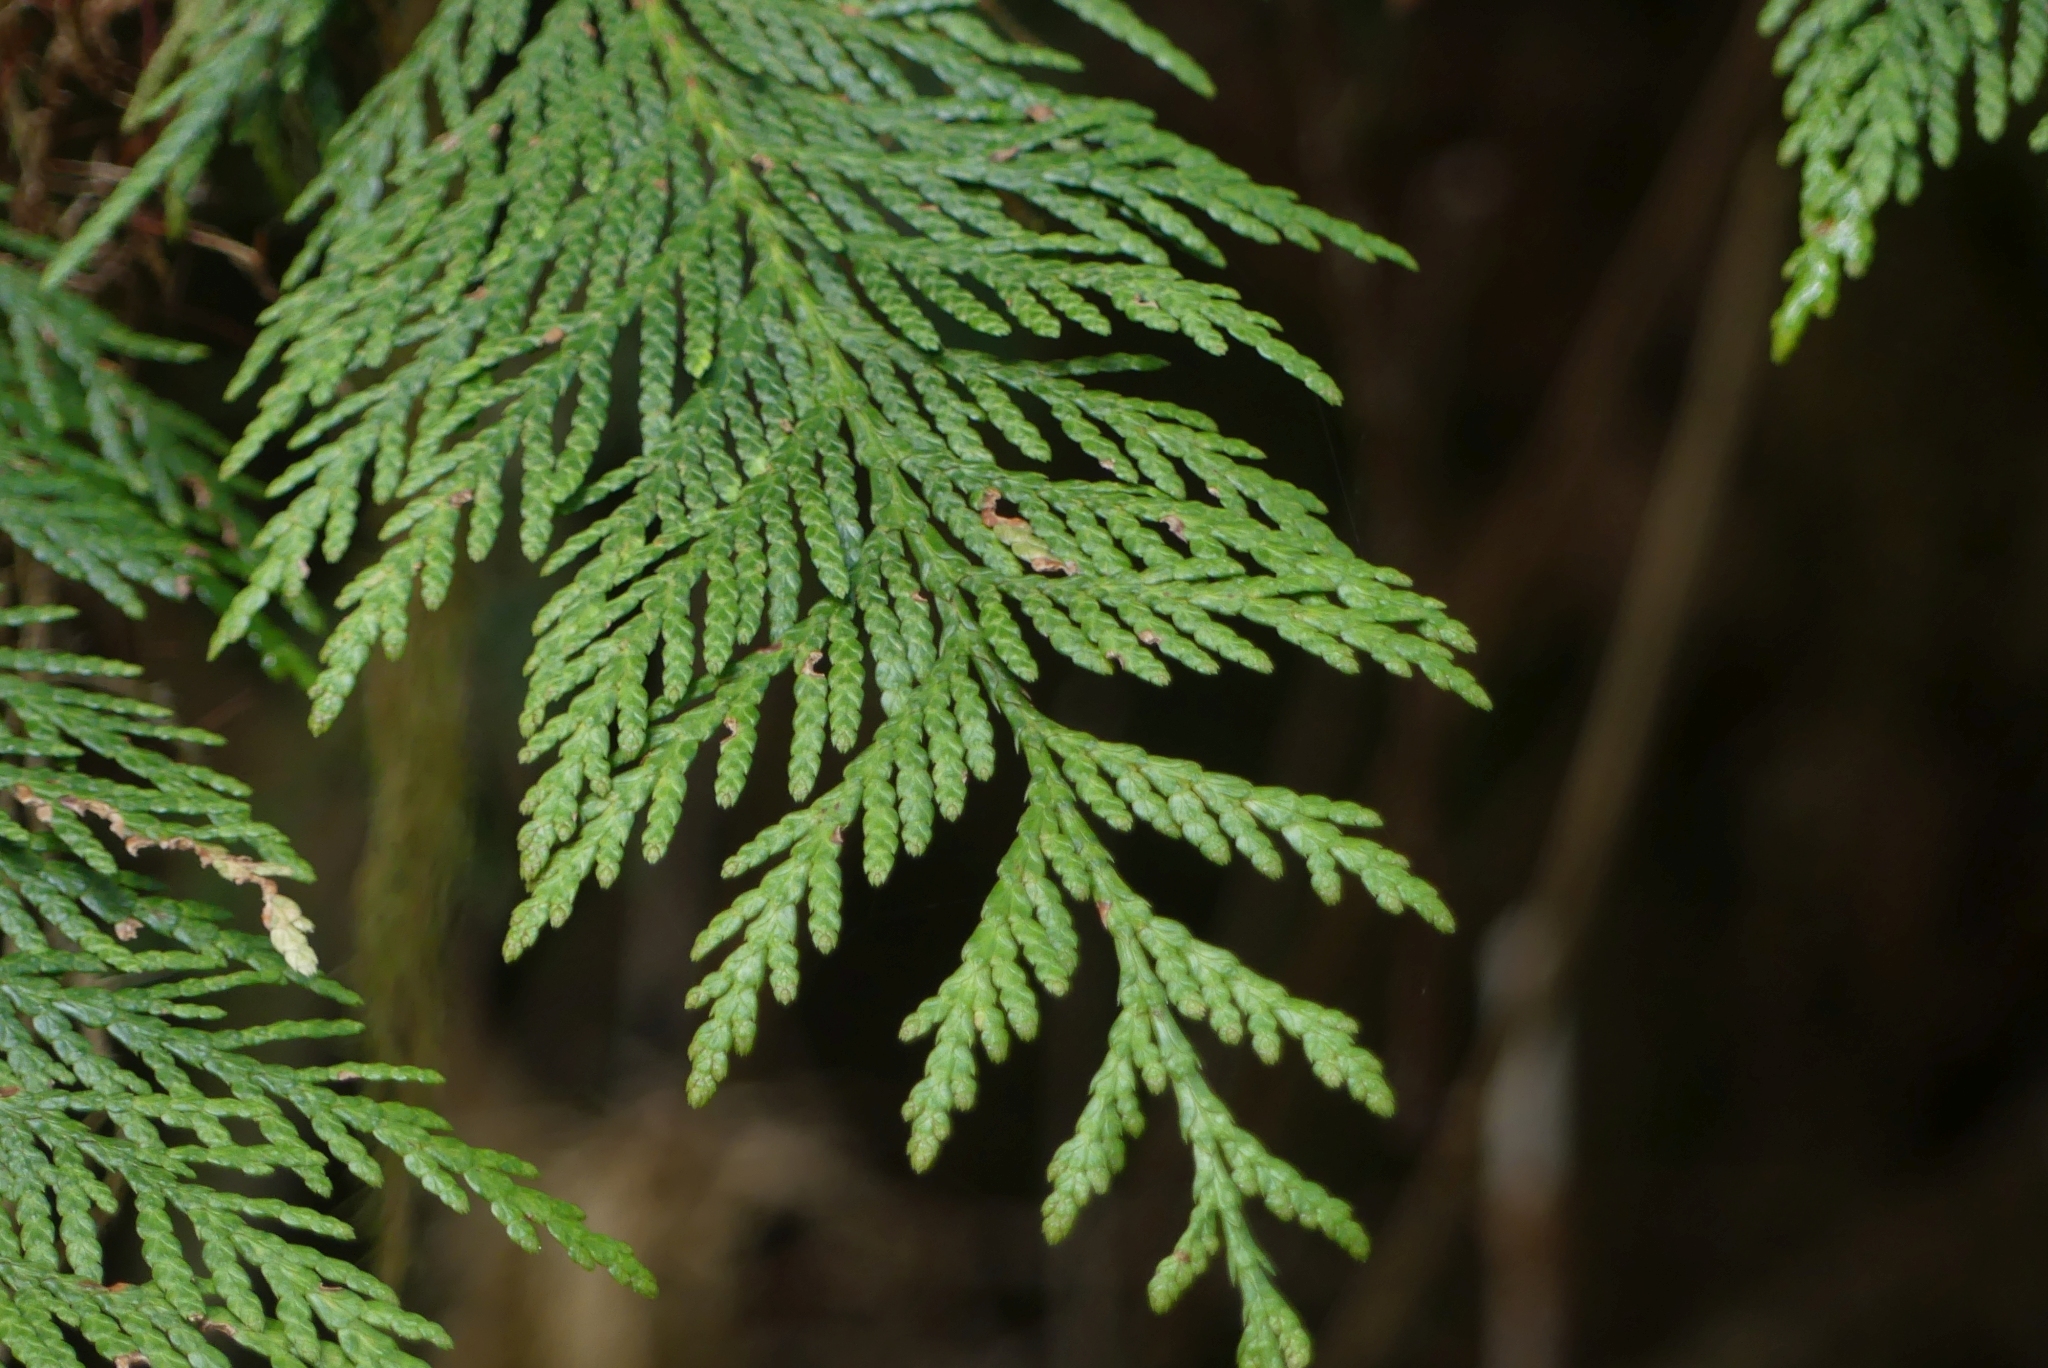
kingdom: Plantae
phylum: Tracheophyta
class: Pinopsida
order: Pinales
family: Cupressaceae
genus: Thuja
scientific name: Thuja plicata
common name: Western red-cedar
